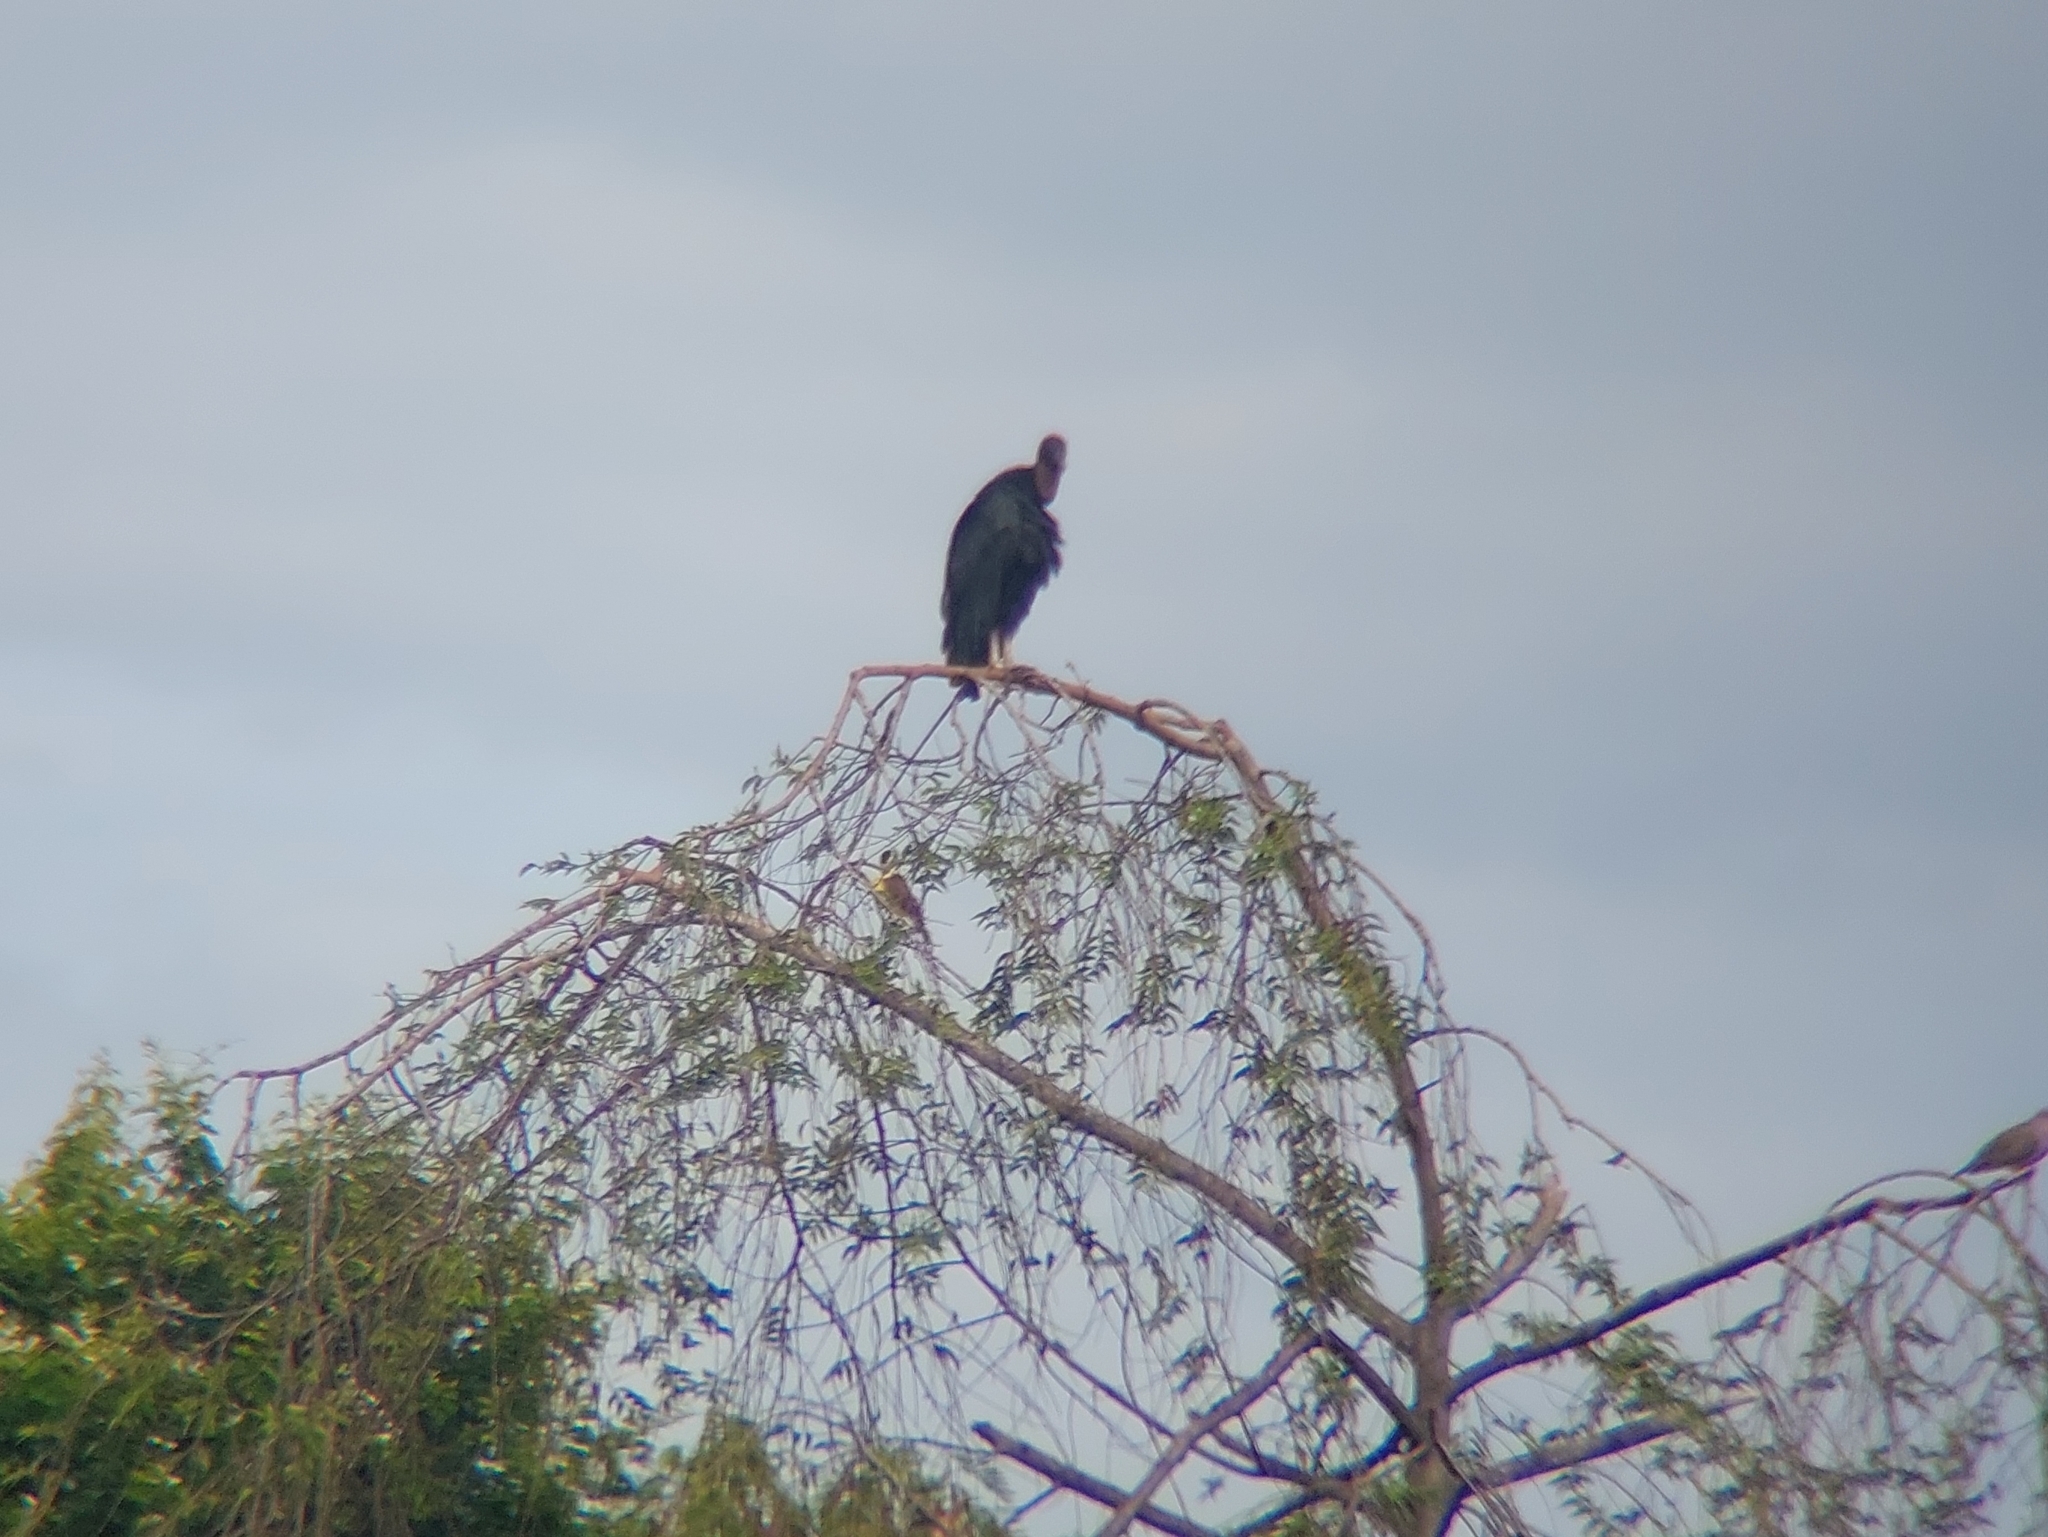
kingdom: Animalia
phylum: Chordata
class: Aves
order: Accipitriformes
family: Cathartidae
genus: Coragyps
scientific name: Coragyps atratus
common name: Black vulture
